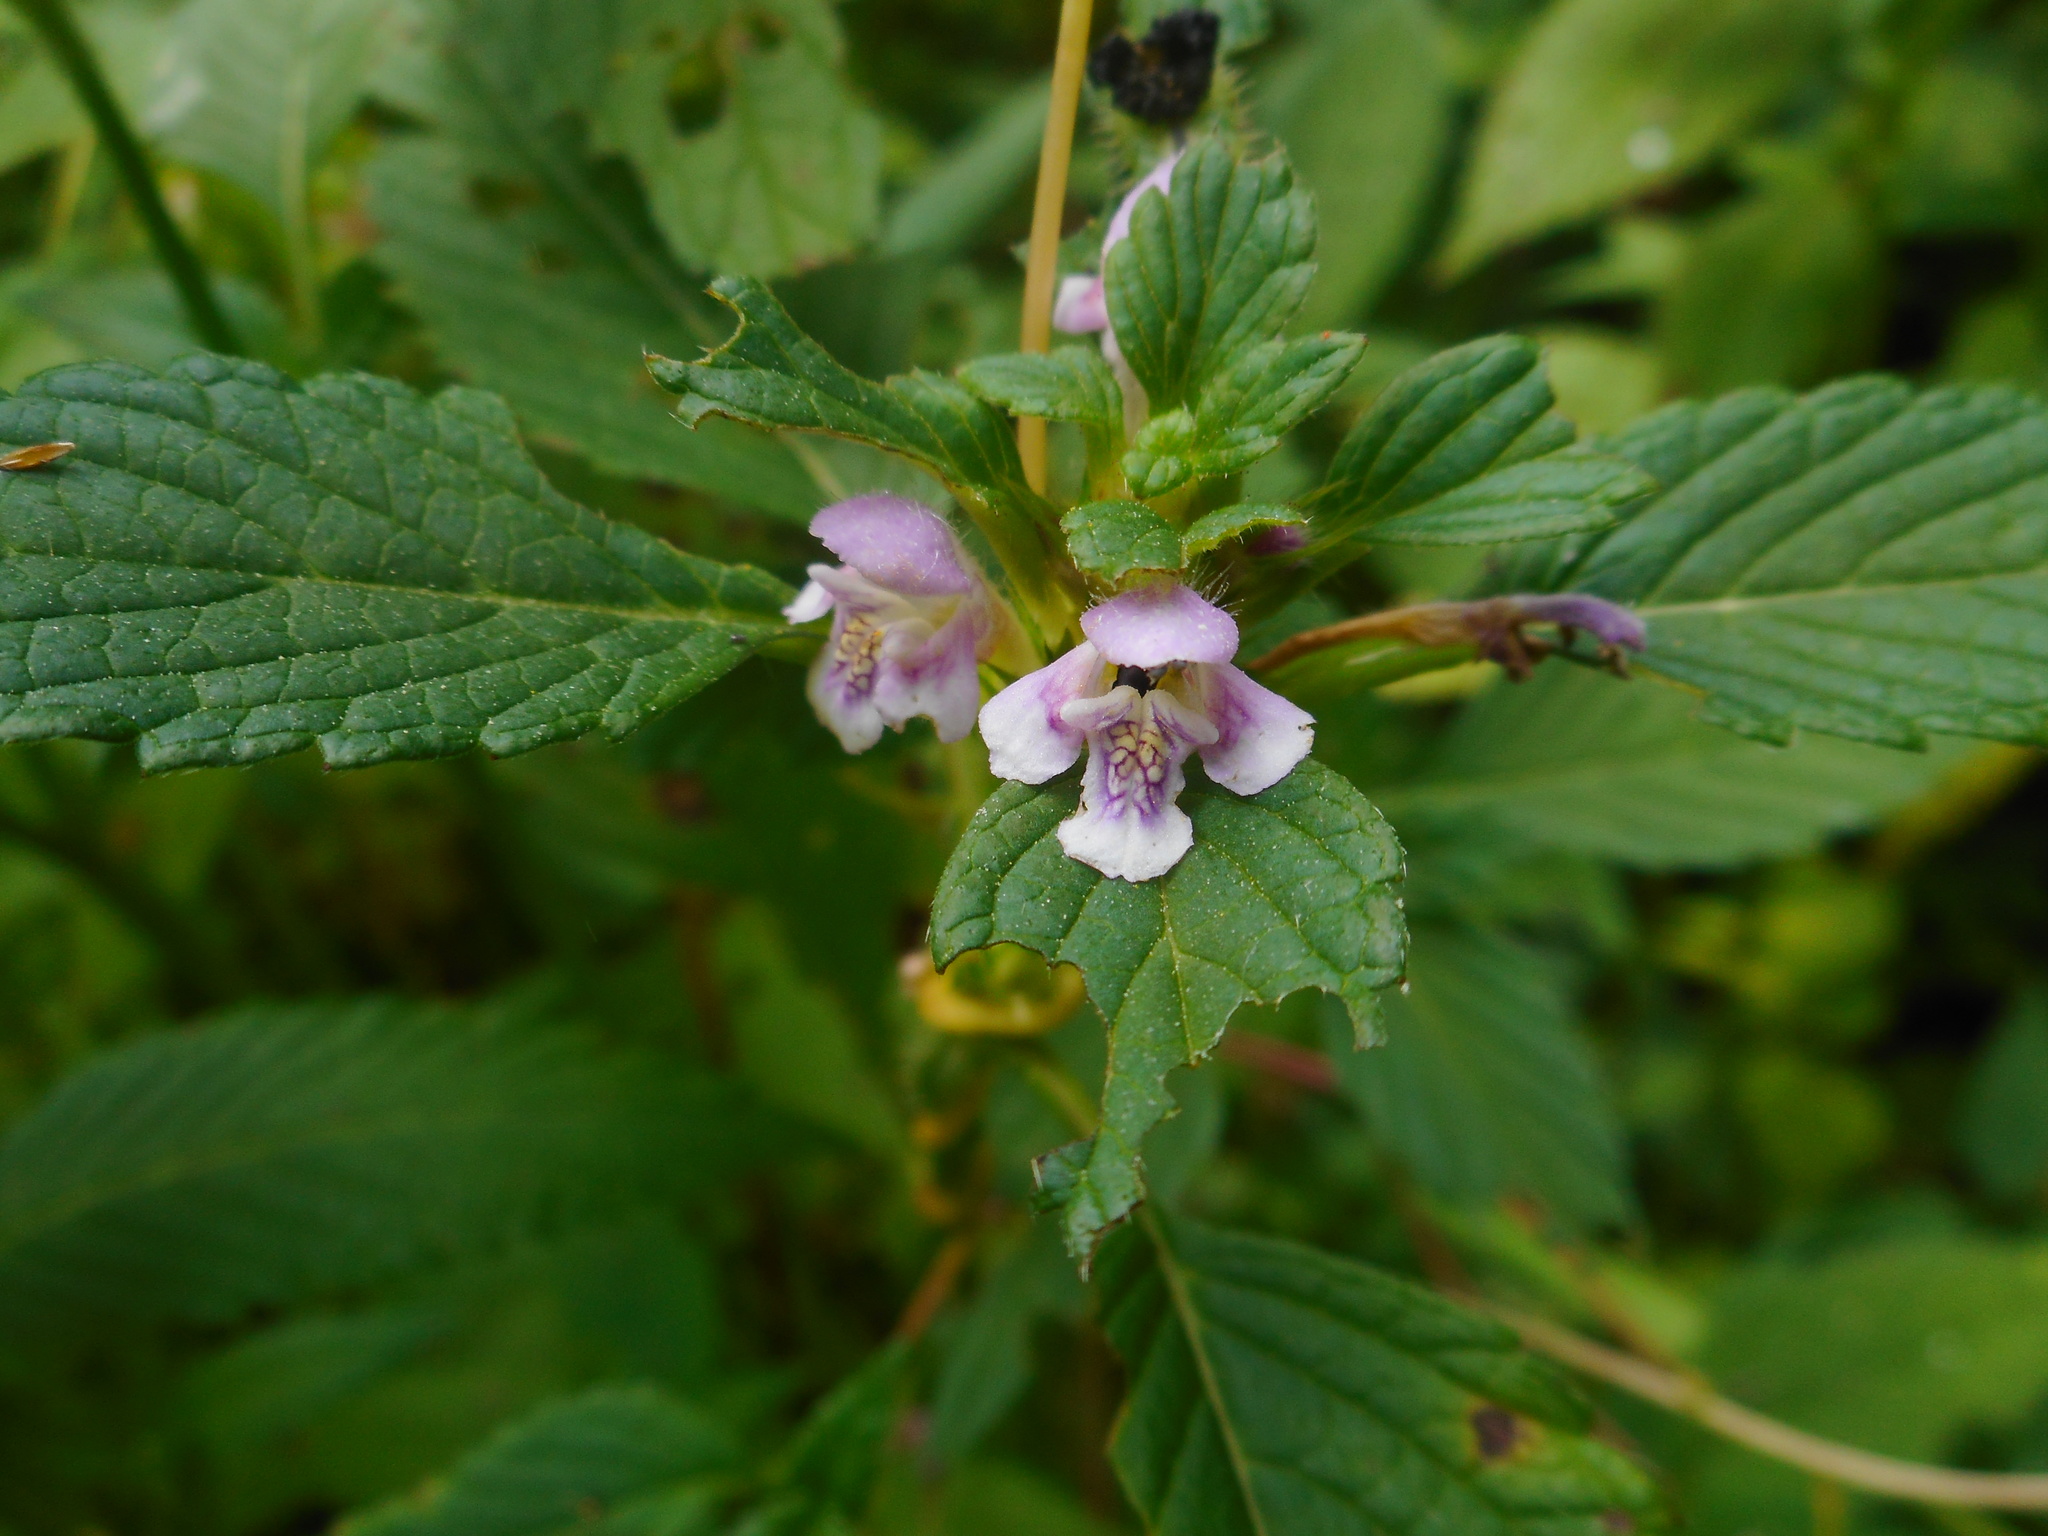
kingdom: Plantae
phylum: Tracheophyta
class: Magnoliopsida
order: Lamiales
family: Lamiaceae
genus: Galeopsis
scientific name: Galeopsis tetrahit
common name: Common hemp-nettle
